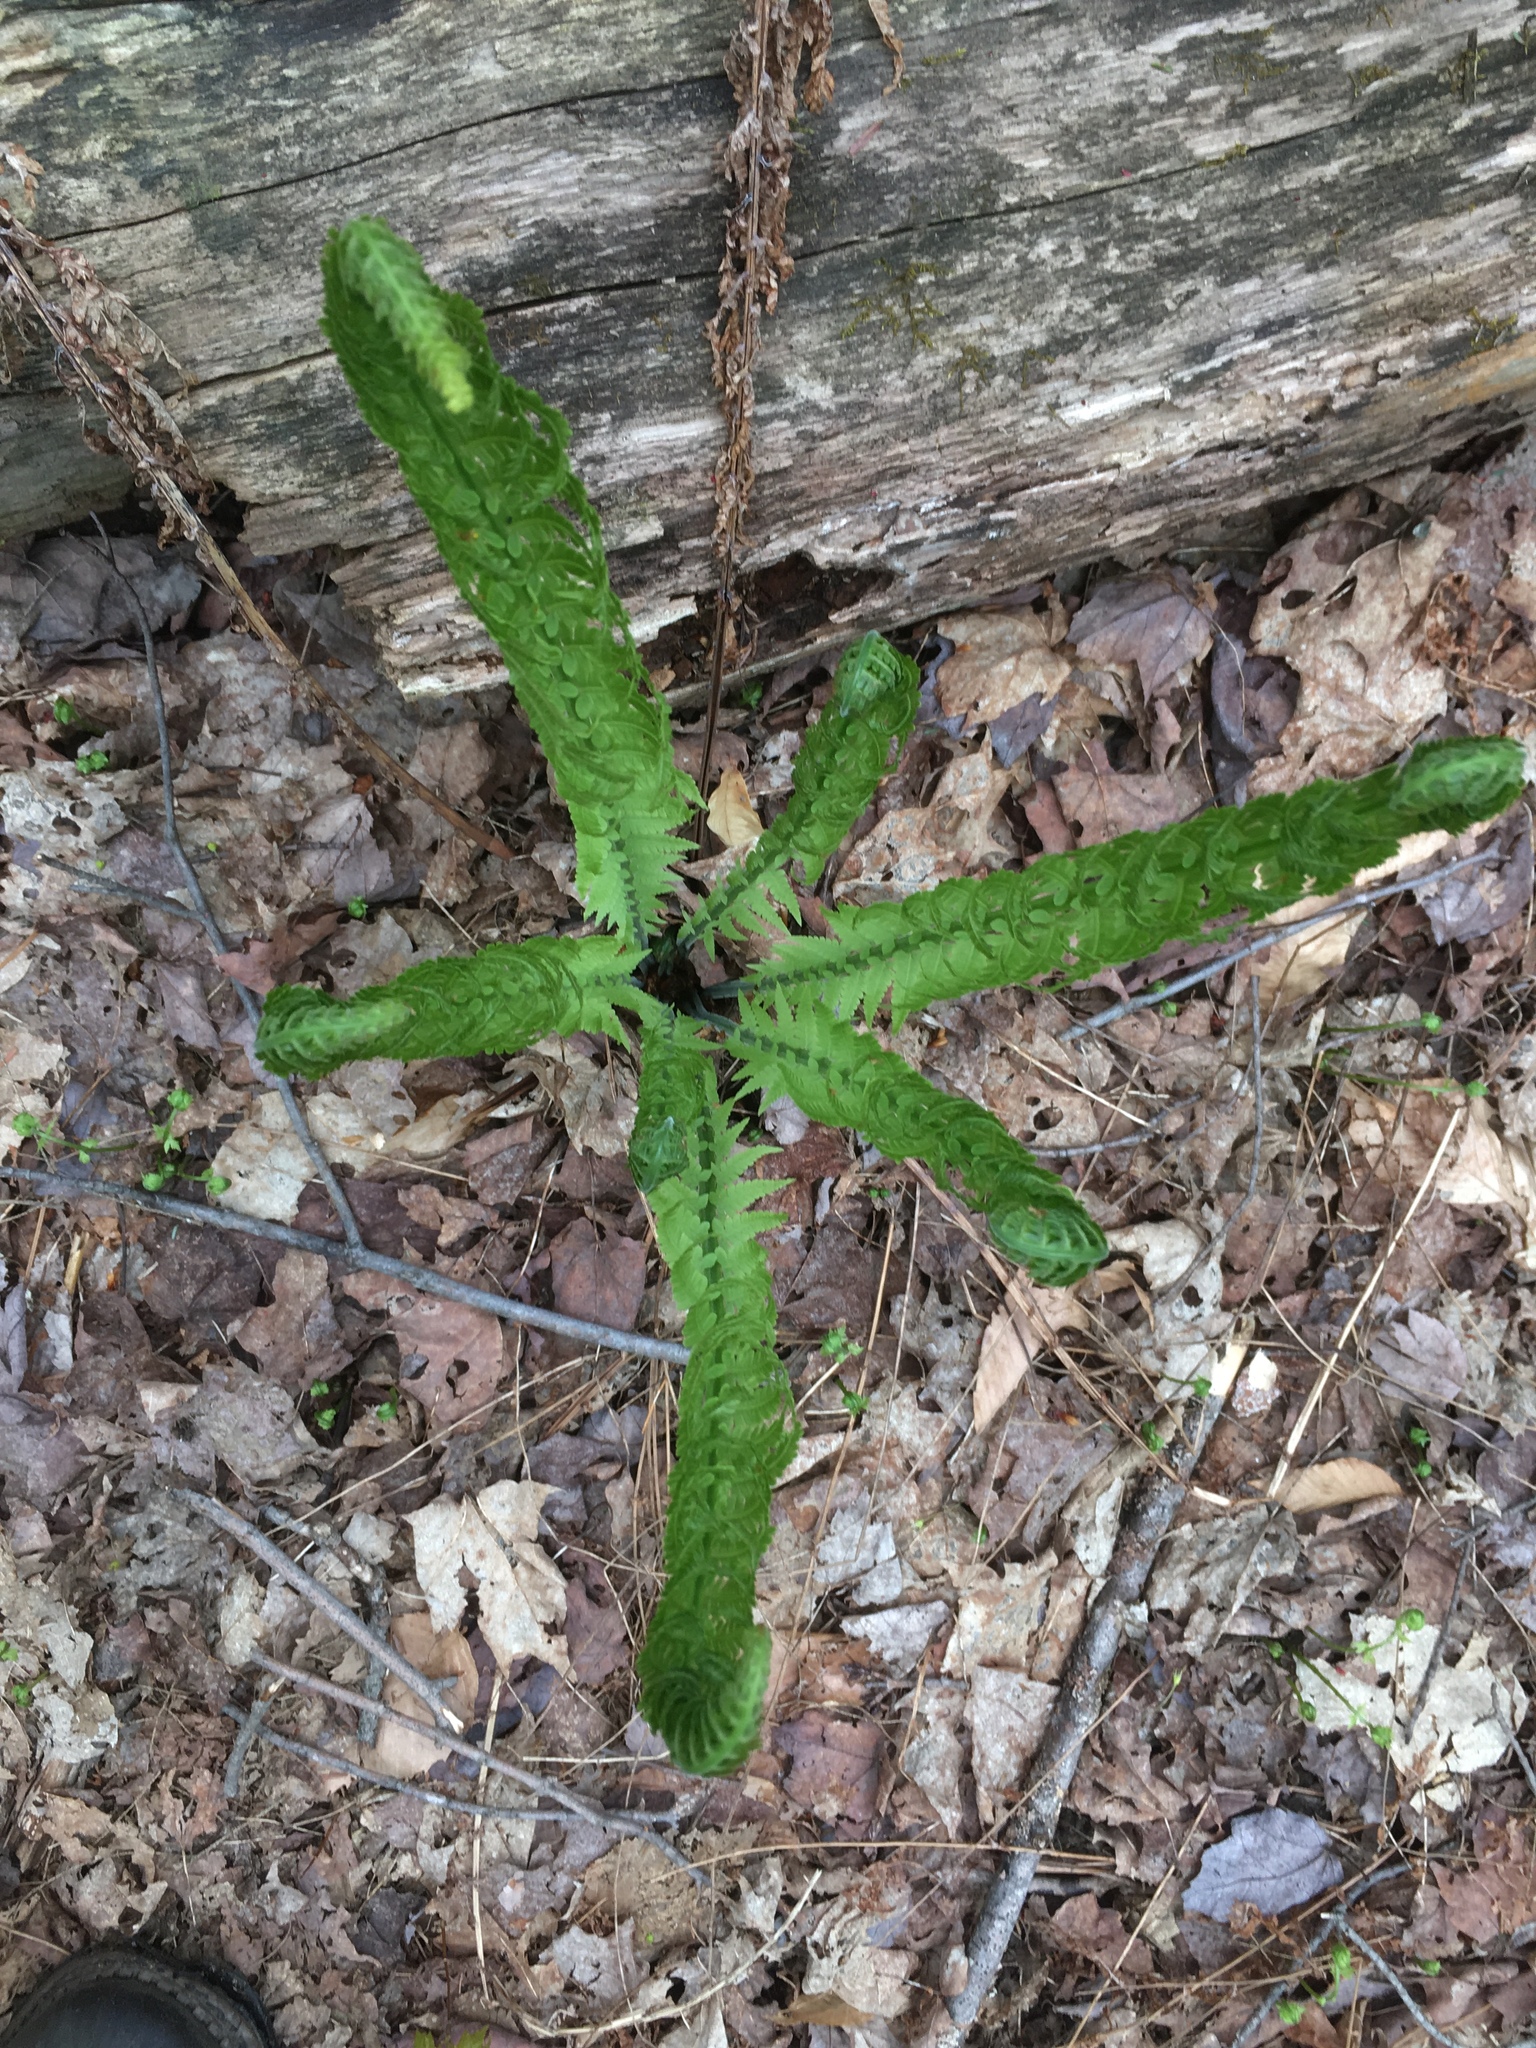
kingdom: Plantae
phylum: Tracheophyta
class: Polypodiopsida
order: Polypodiales
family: Onocleaceae
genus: Matteuccia
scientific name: Matteuccia struthiopteris
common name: Ostrich fern
